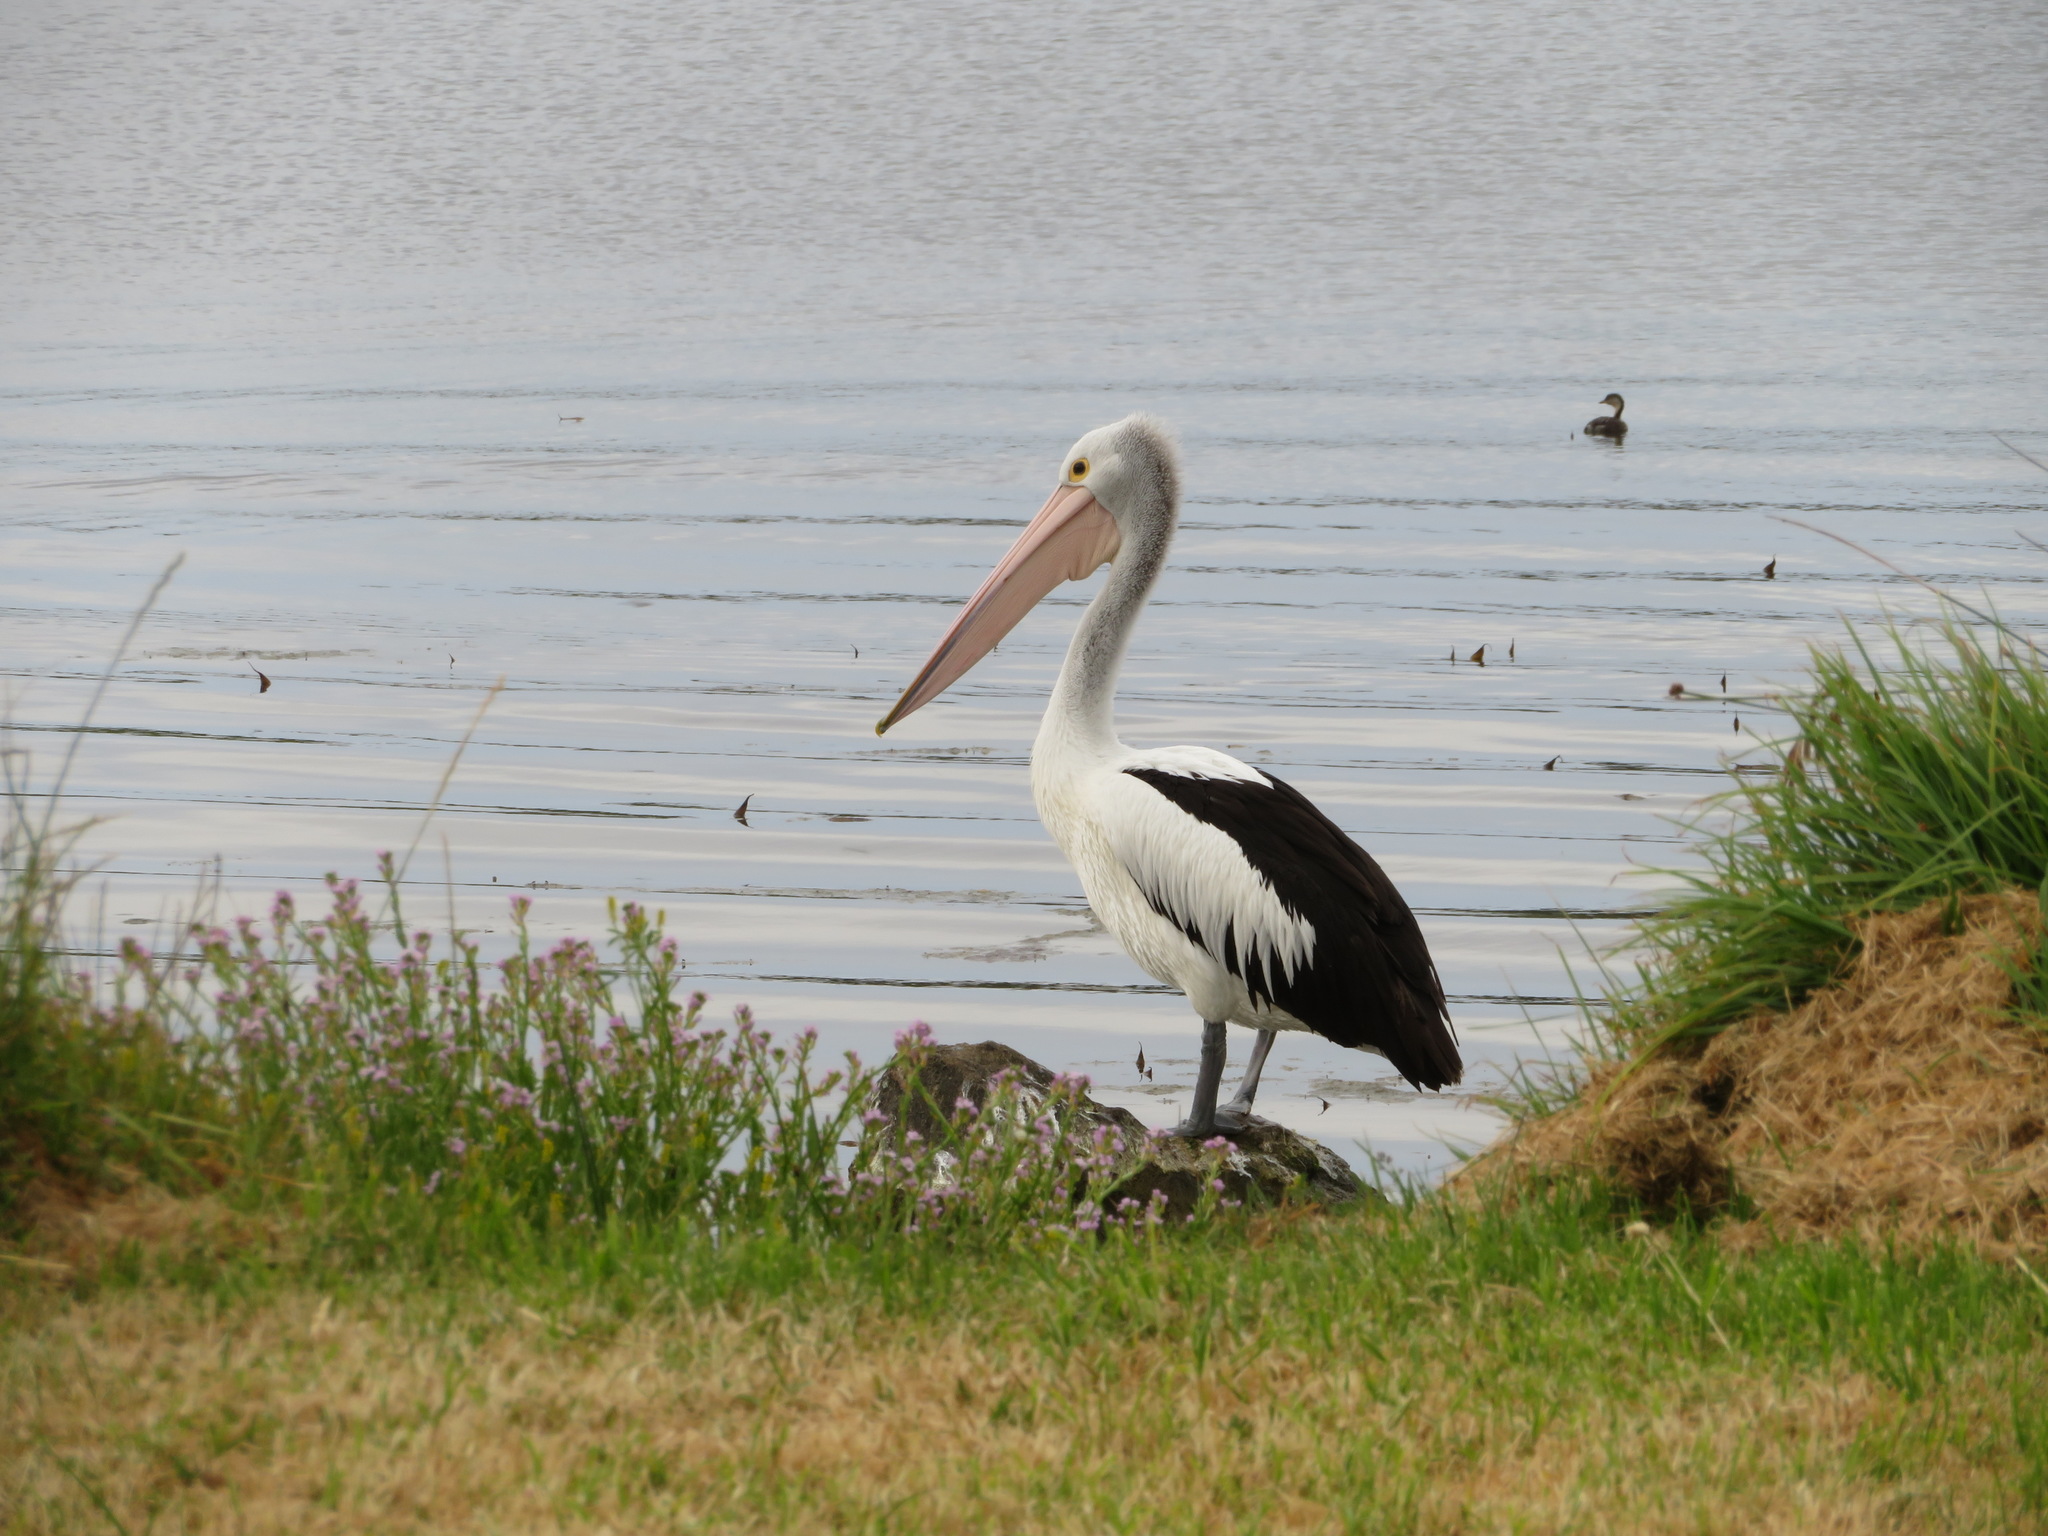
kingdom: Animalia
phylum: Chordata
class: Aves
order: Pelecaniformes
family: Pelecanidae
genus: Pelecanus
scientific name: Pelecanus conspicillatus
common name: Australian pelican
